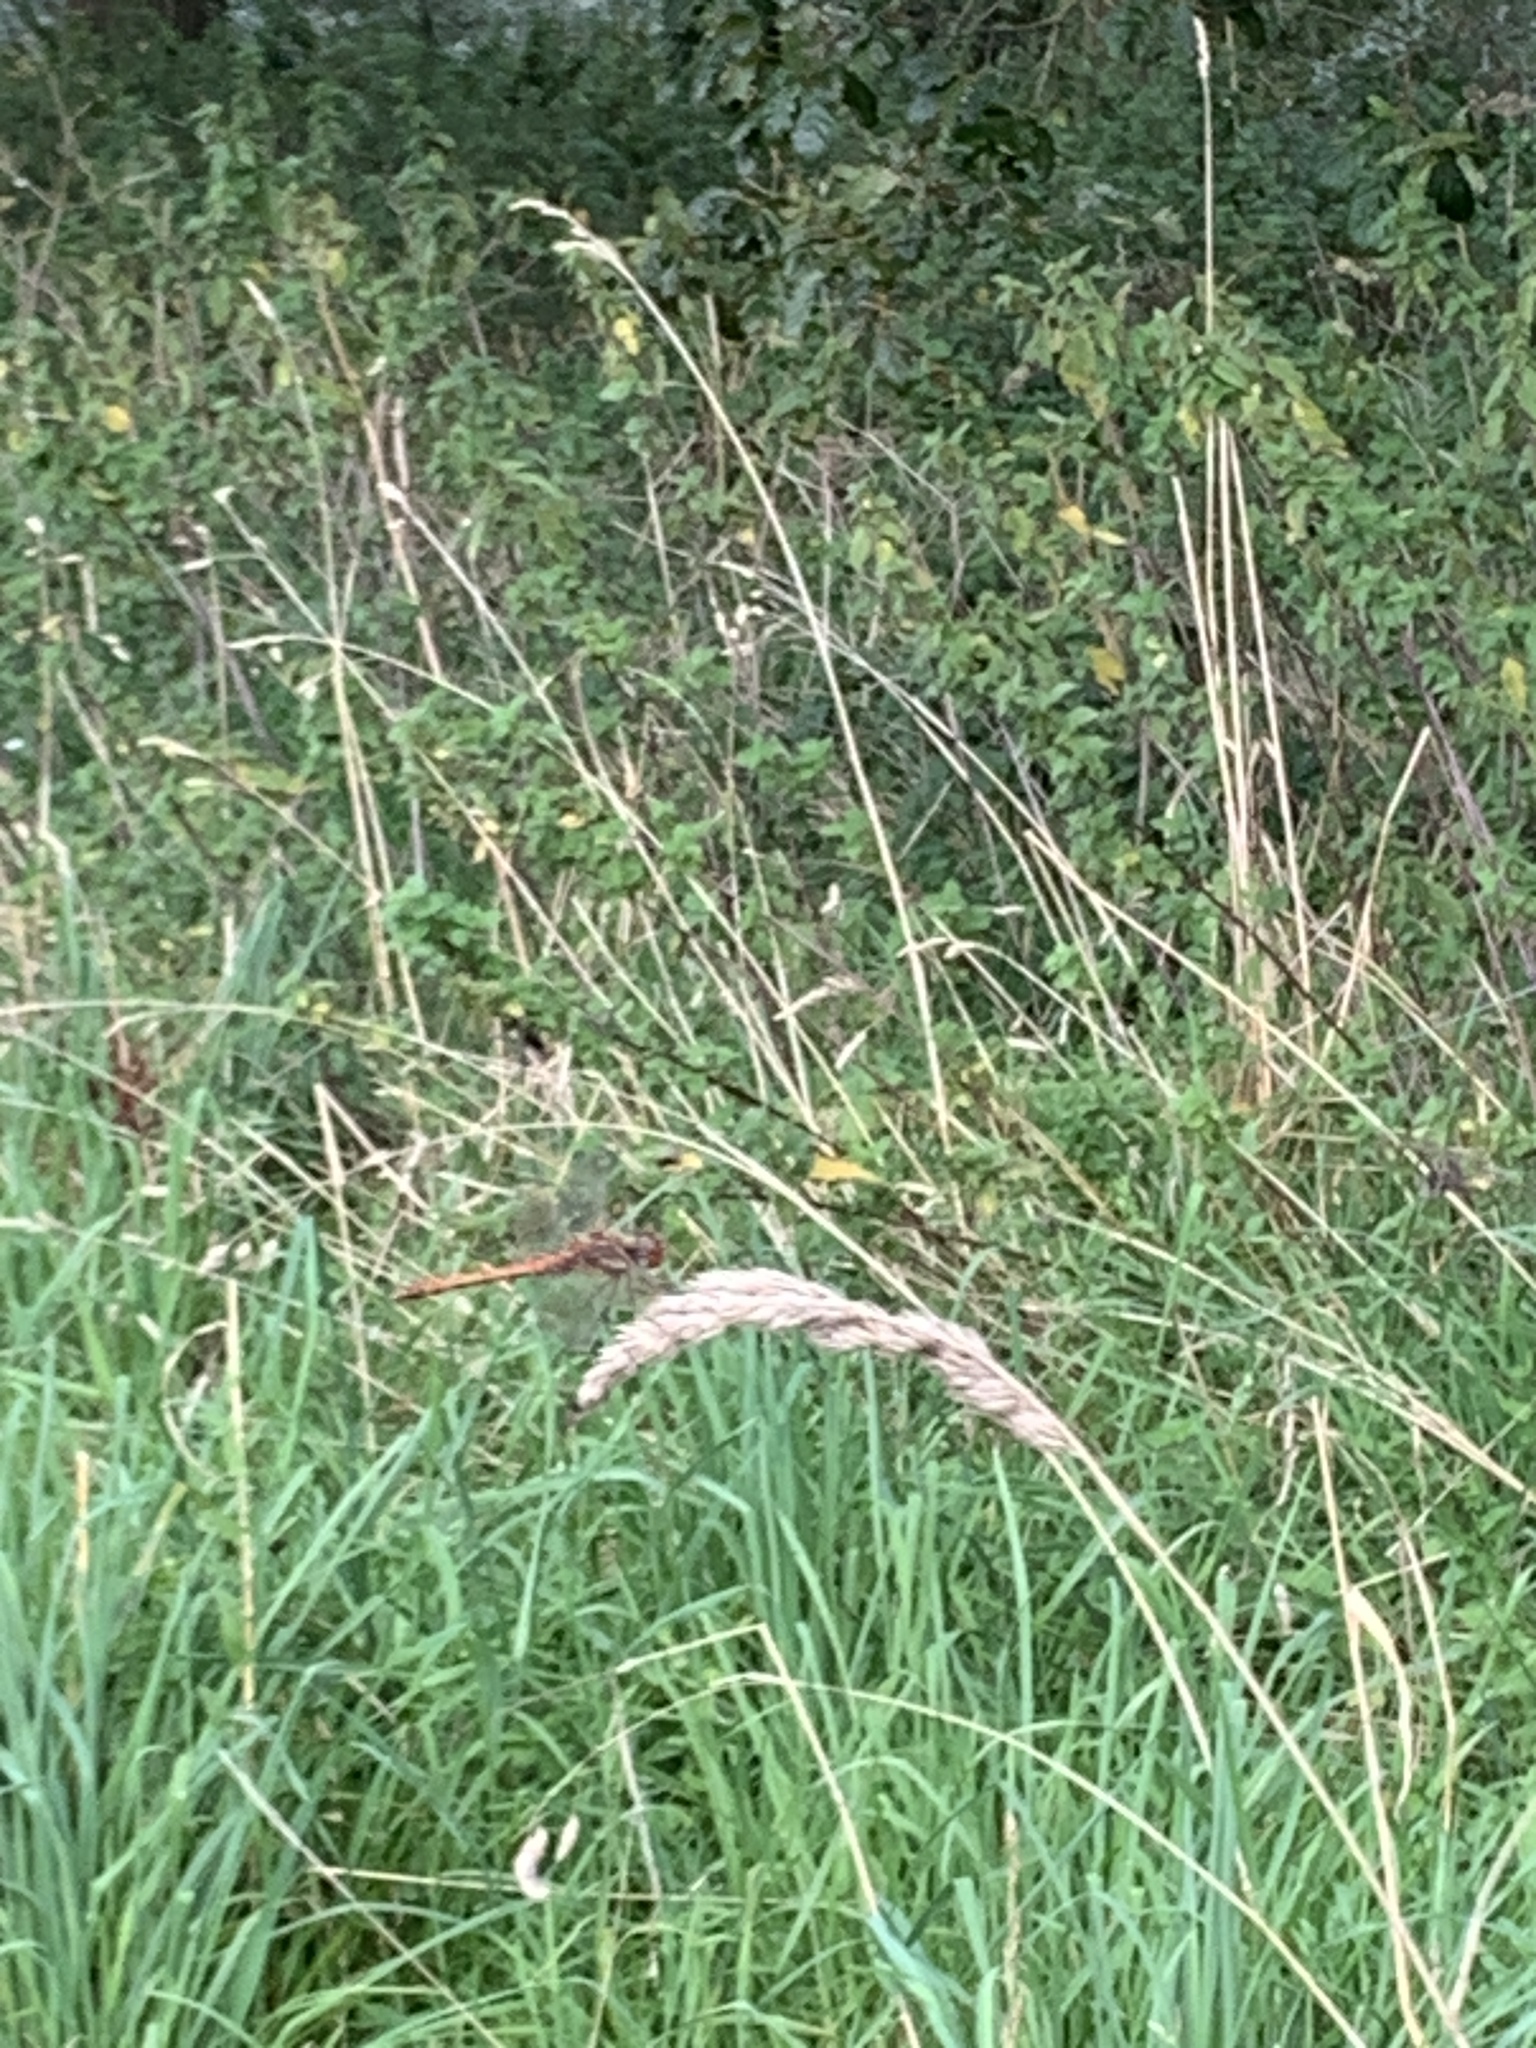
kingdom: Animalia
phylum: Arthropoda
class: Insecta
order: Odonata
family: Libellulidae
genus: Sympetrum
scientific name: Sympetrum striolatum
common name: Common darter
